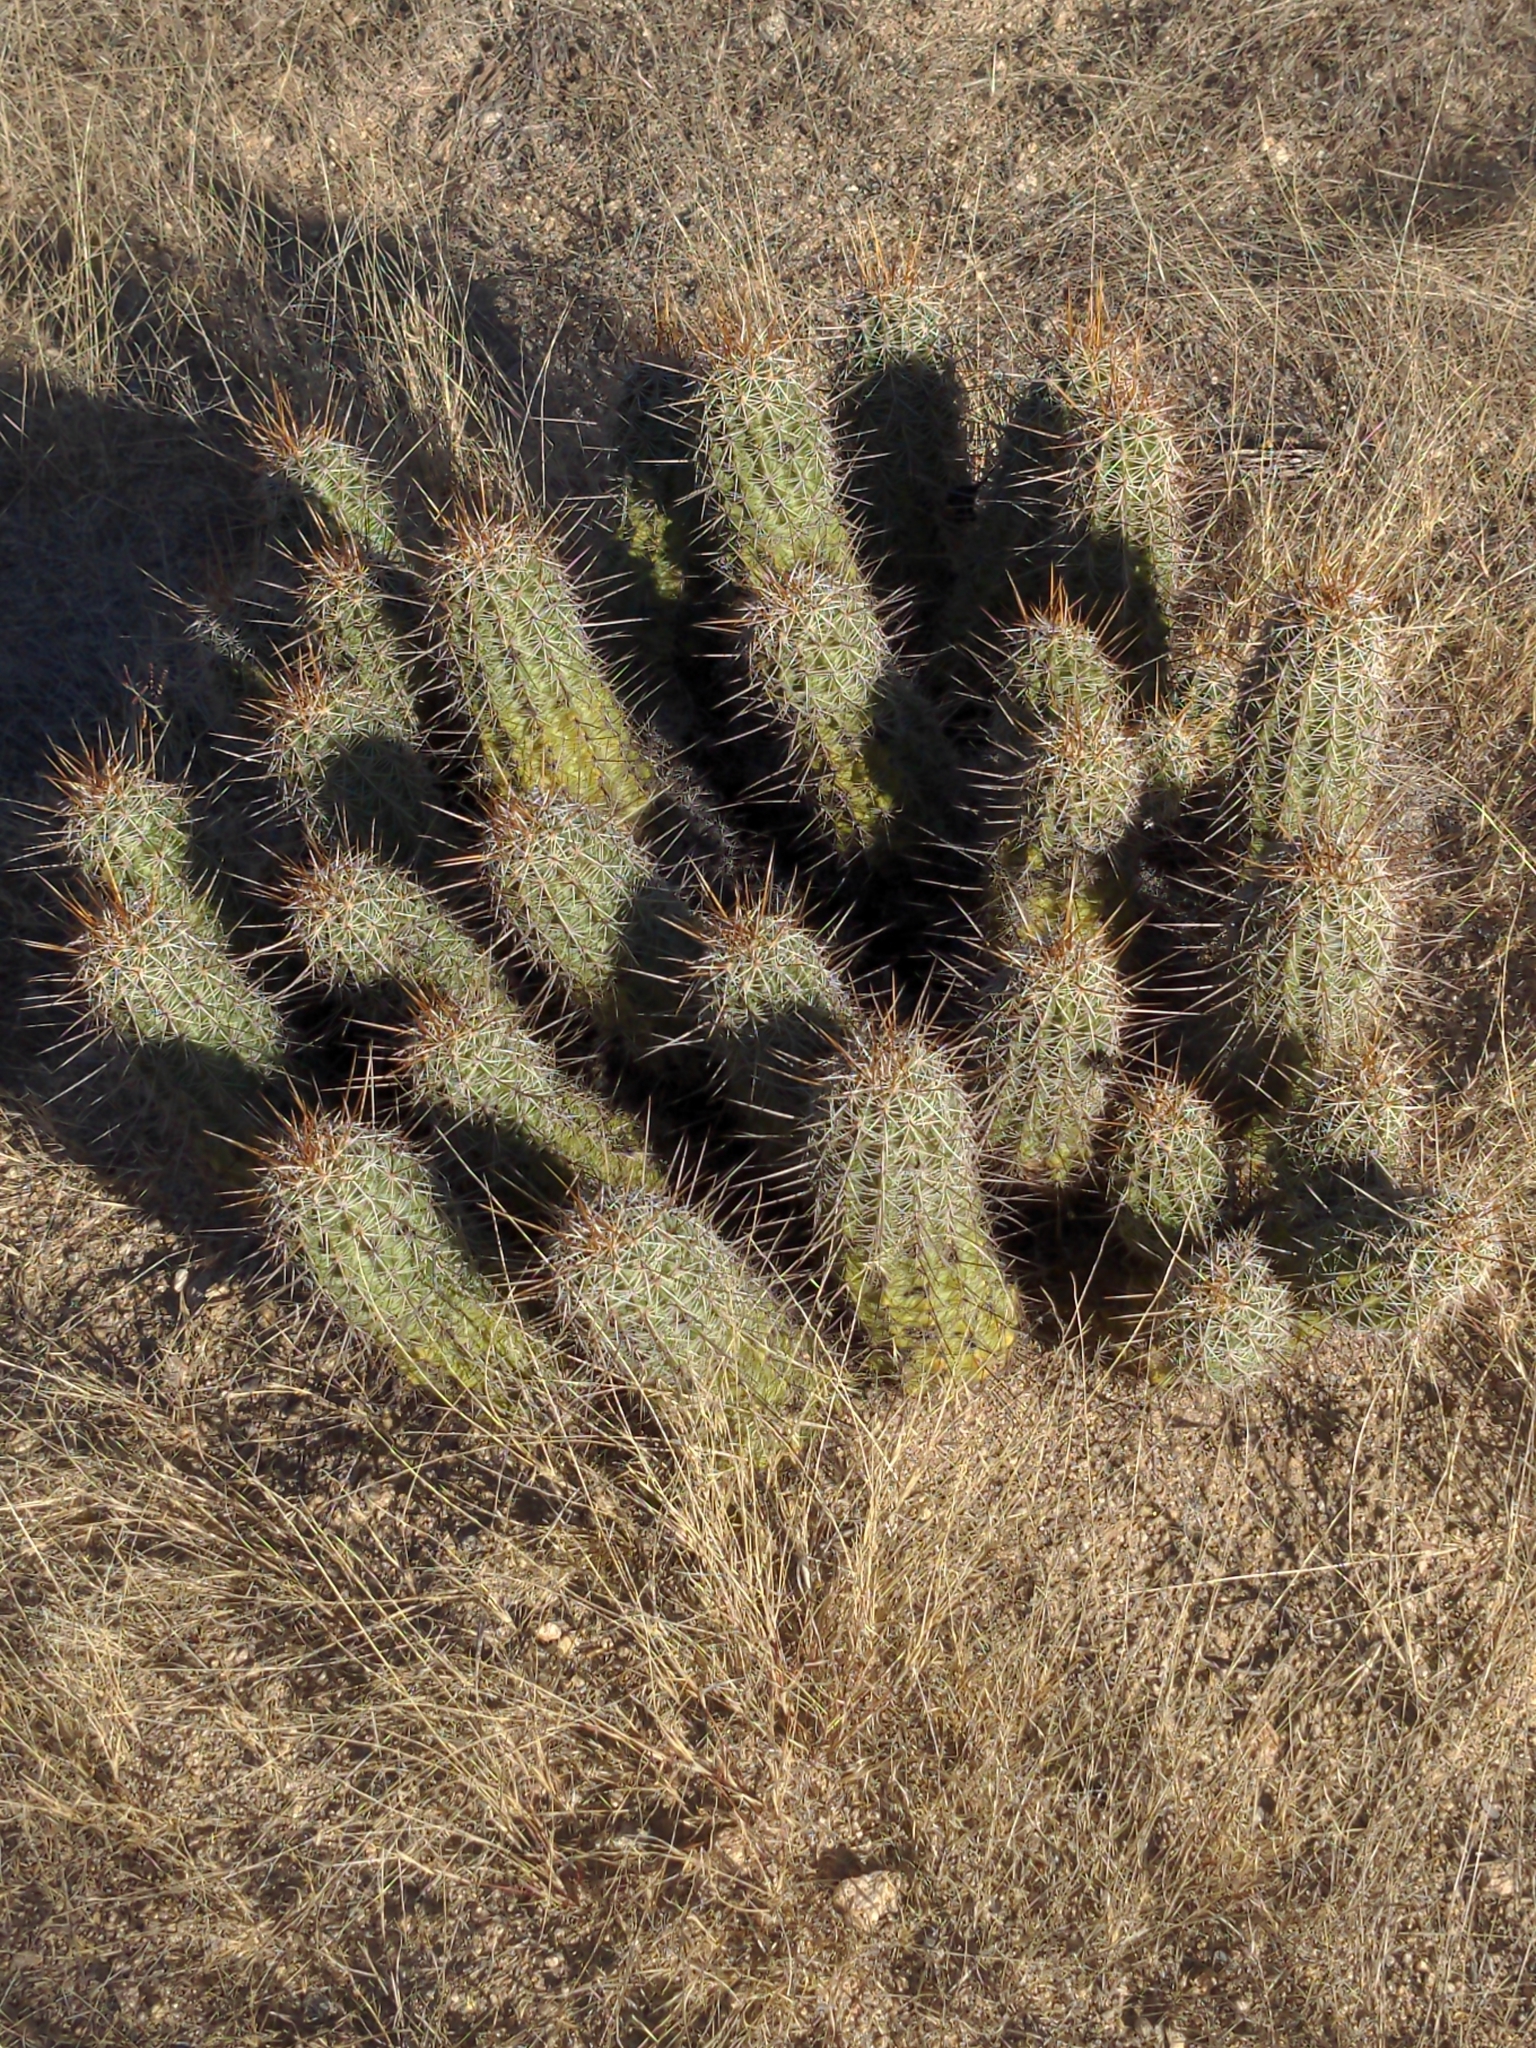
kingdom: Plantae
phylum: Tracheophyta
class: Magnoliopsida
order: Caryophyllales
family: Cactaceae
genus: Echinocereus
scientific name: Echinocereus engelmannii
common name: Engelmann's hedgehog cactus
